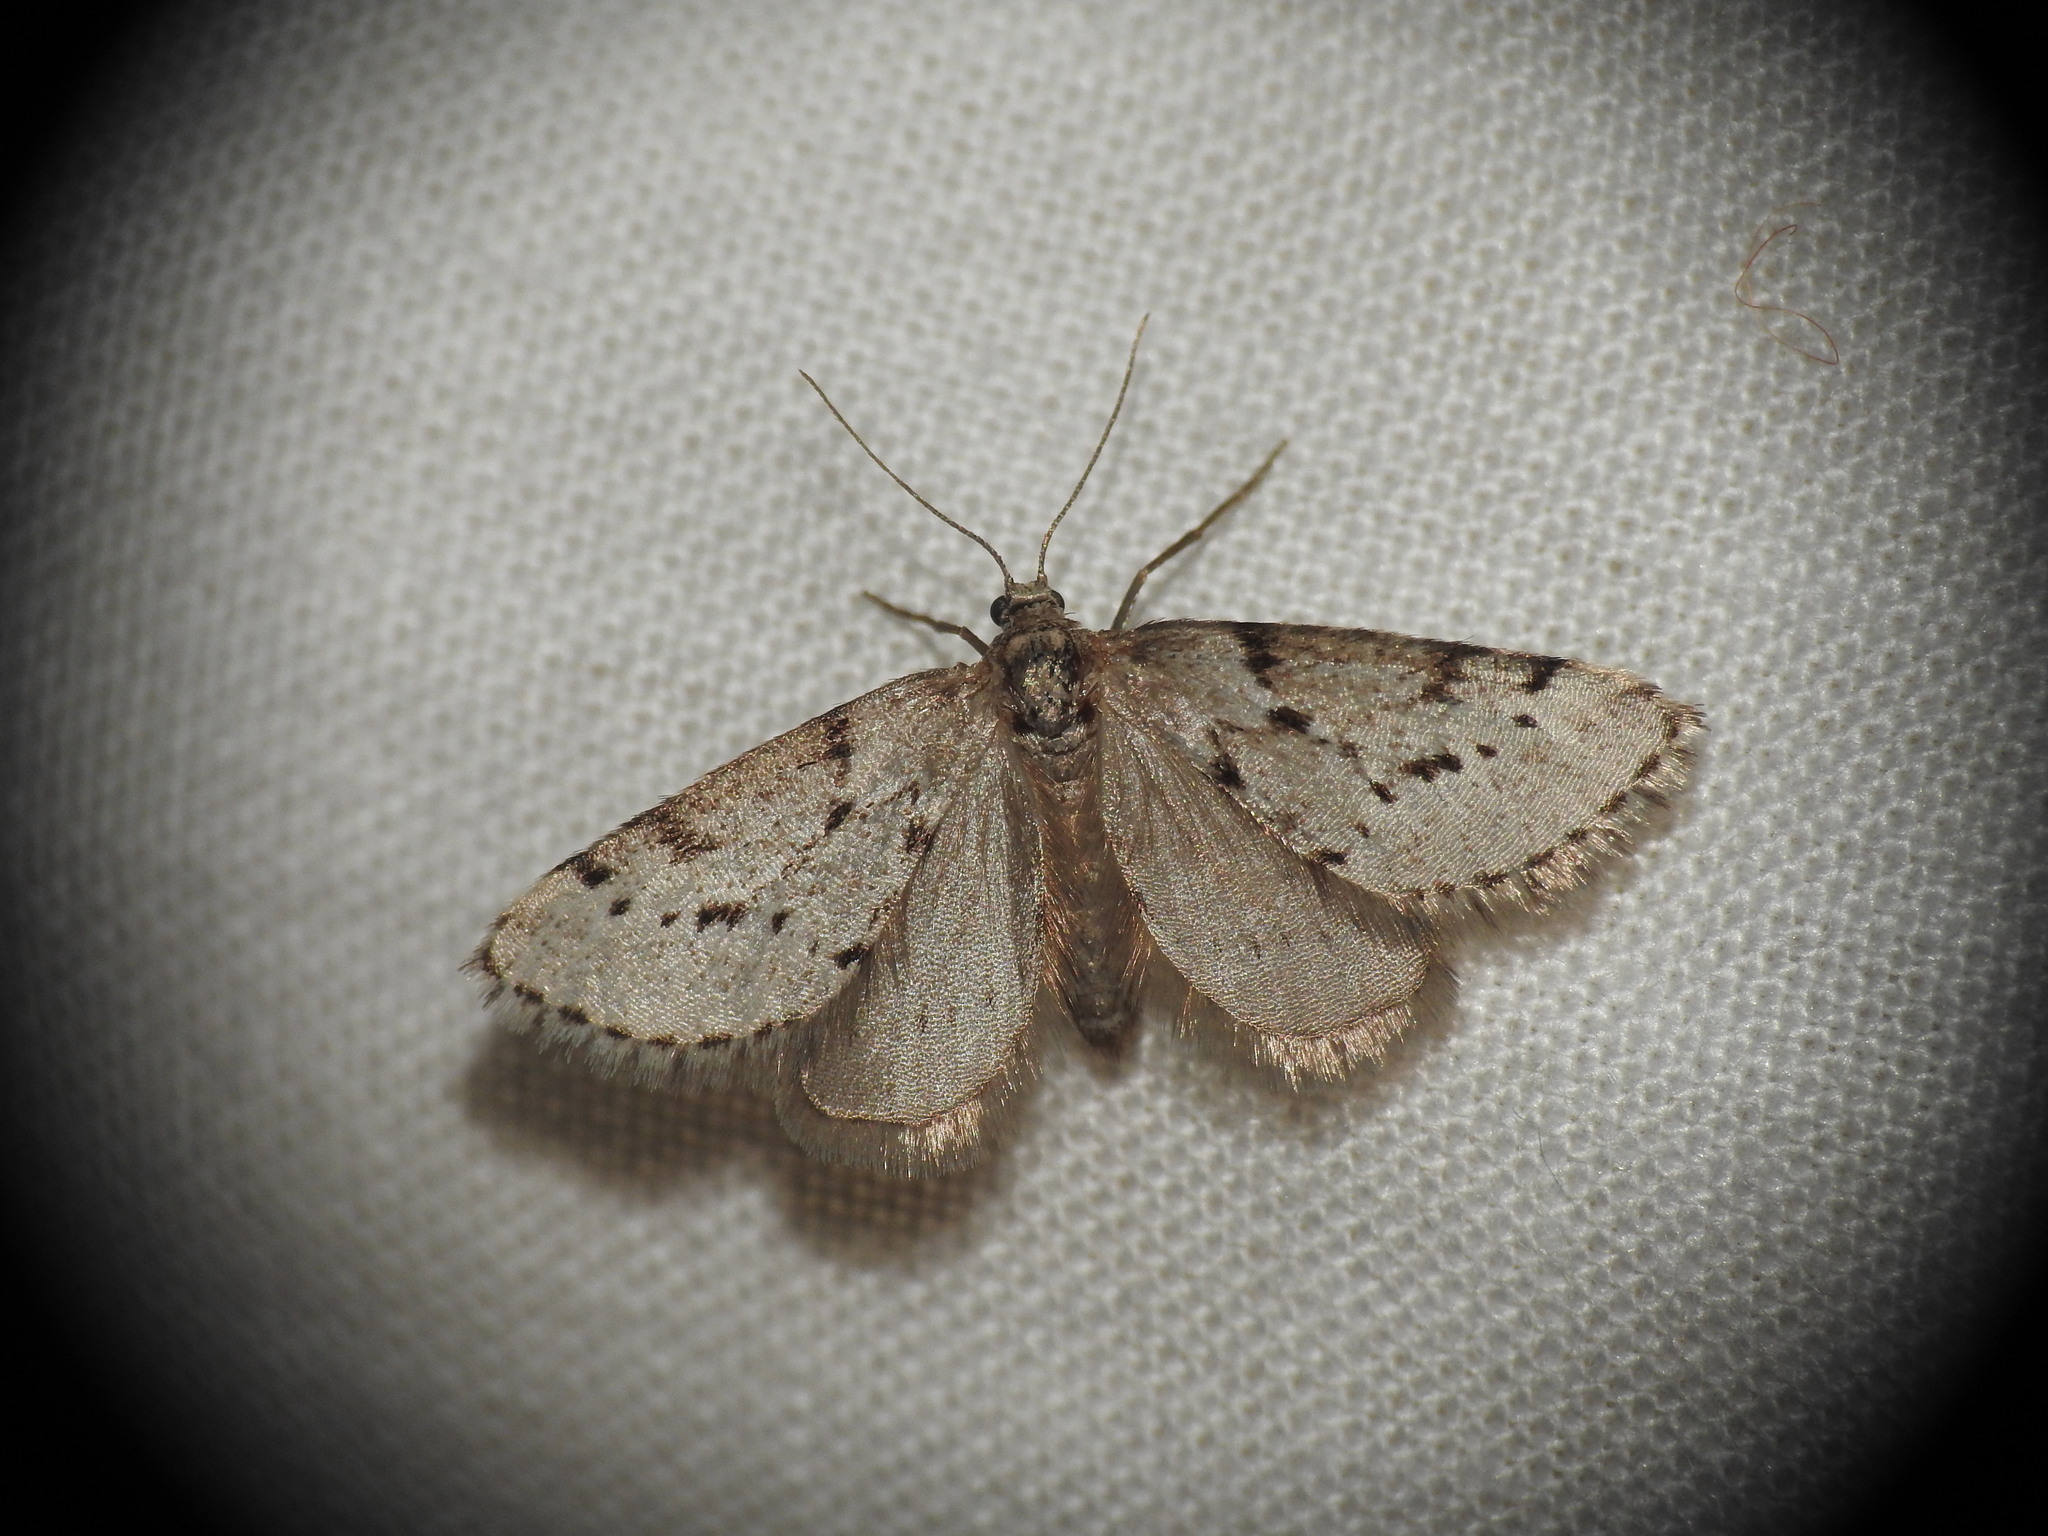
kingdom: Animalia
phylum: Arthropoda
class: Insecta
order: Lepidoptera
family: Geometridae
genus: Tephronia
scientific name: Tephronia oranaria
